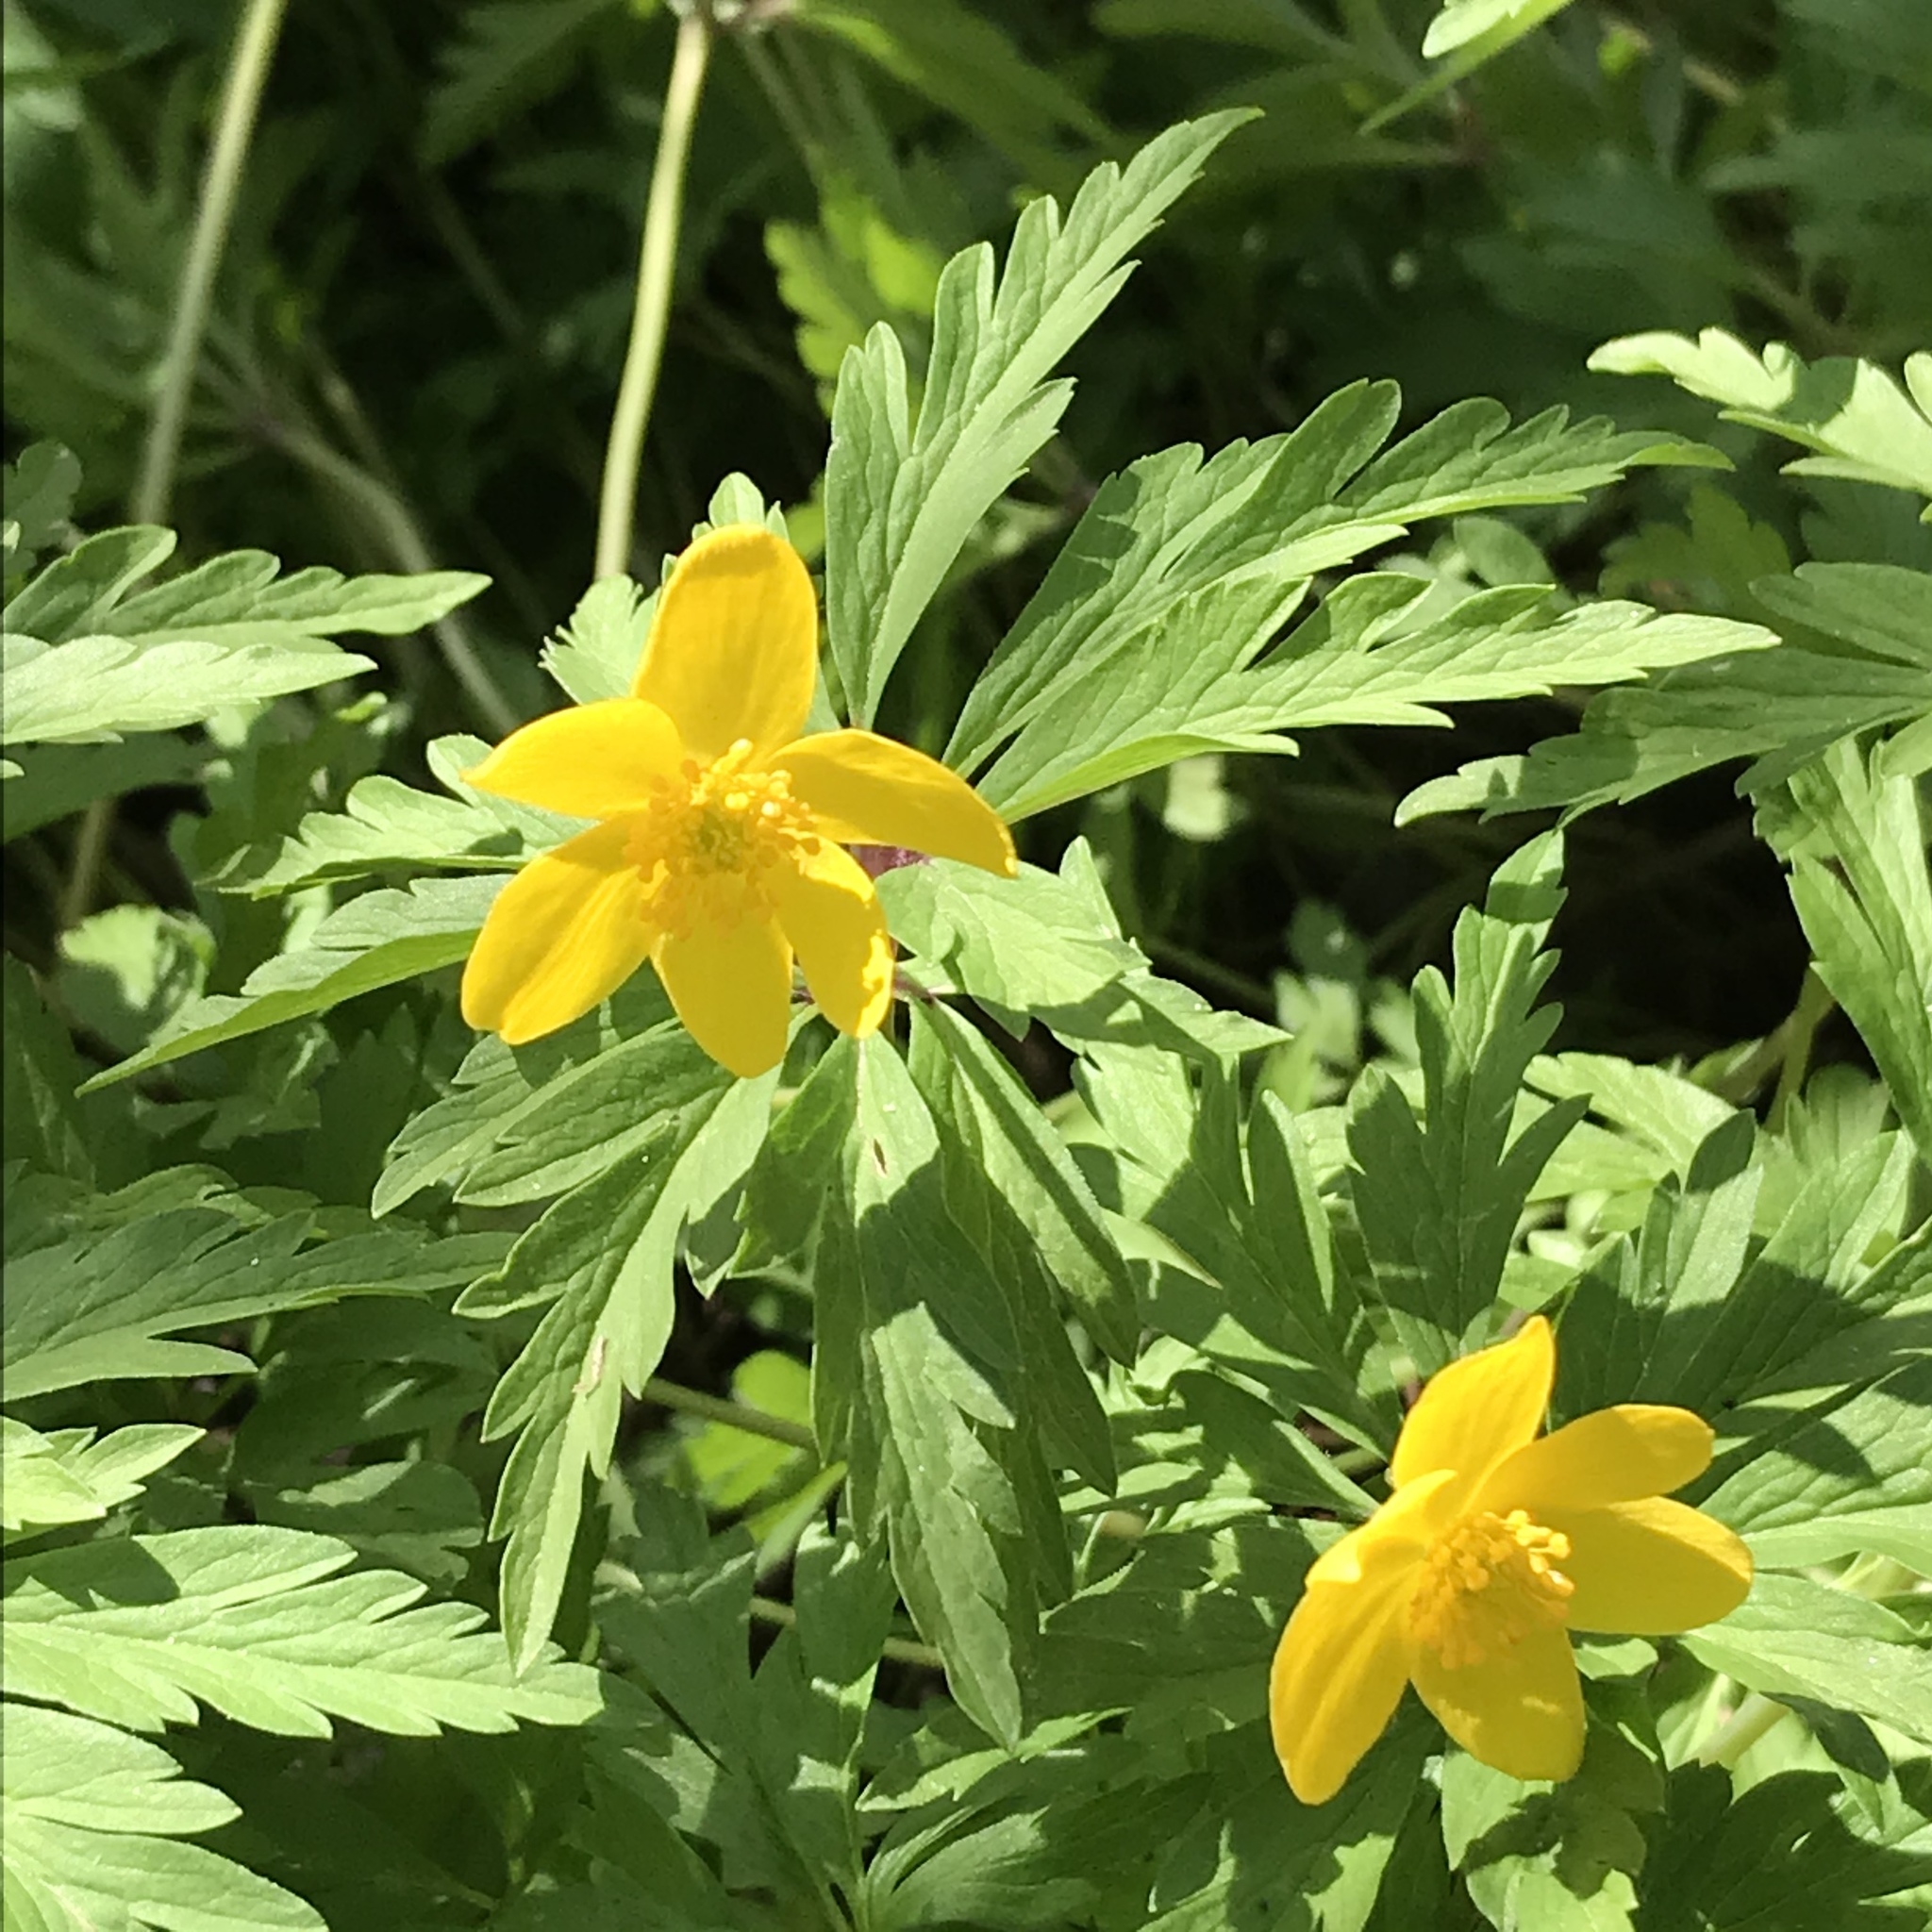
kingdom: Plantae
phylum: Tracheophyta
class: Magnoliopsida
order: Ranunculales
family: Ranunculaceae
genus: Anemone
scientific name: Anemone ranunculoides
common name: Yellow anemone
